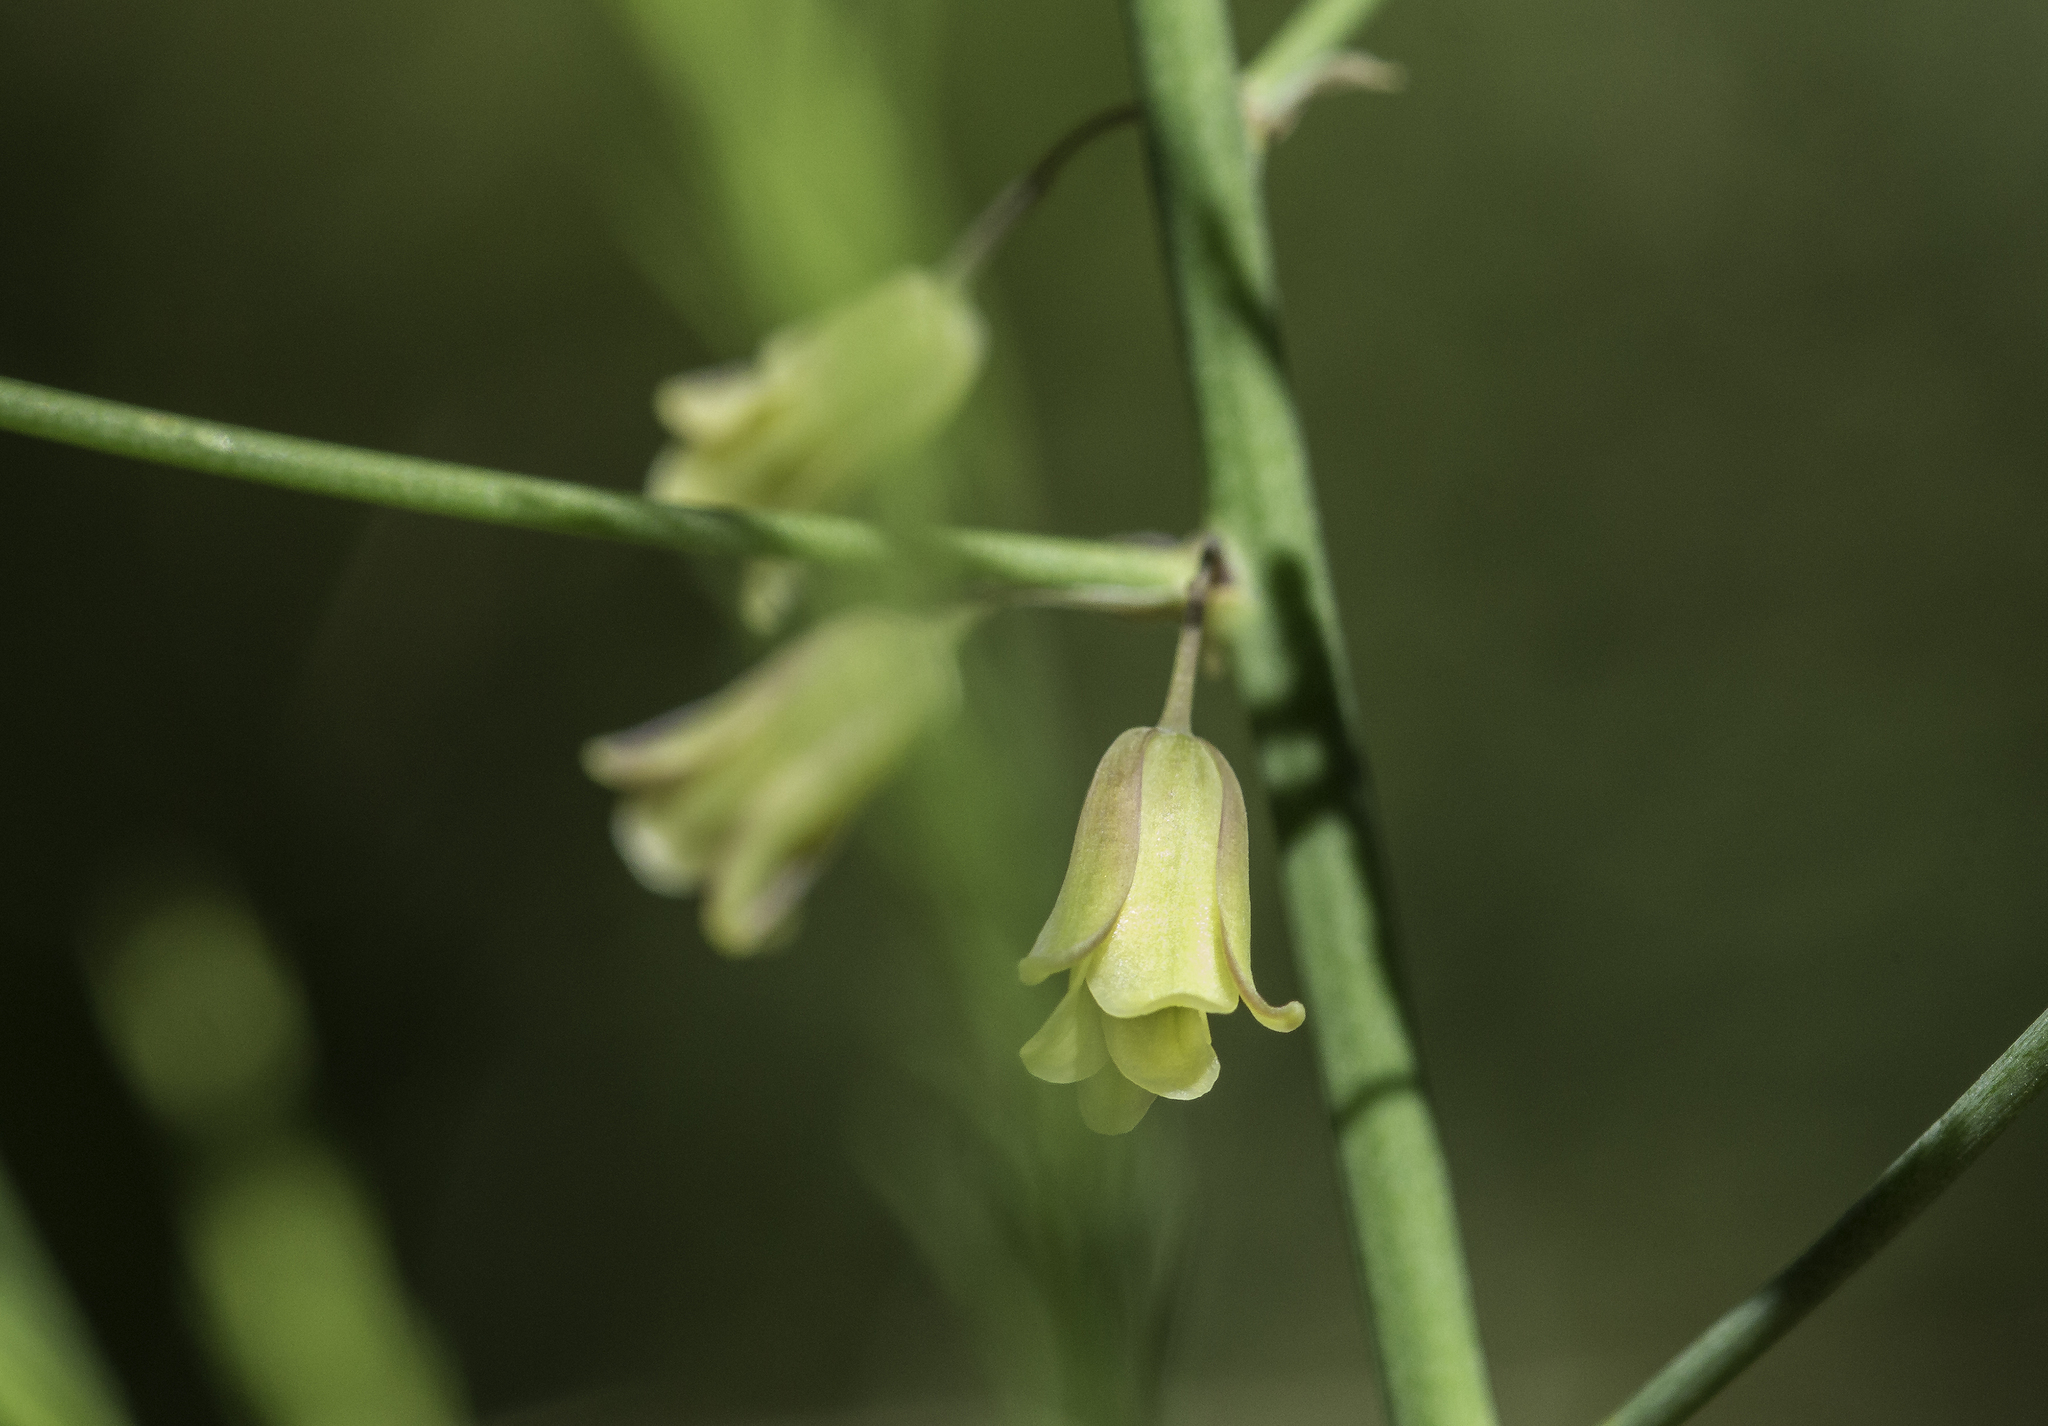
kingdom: Plantae
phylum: Tracheophyta
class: Liliopsida
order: Asparagales
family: Asparagaceae
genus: Asparagus
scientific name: Asparagus officinalis
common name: Garden asparagus
